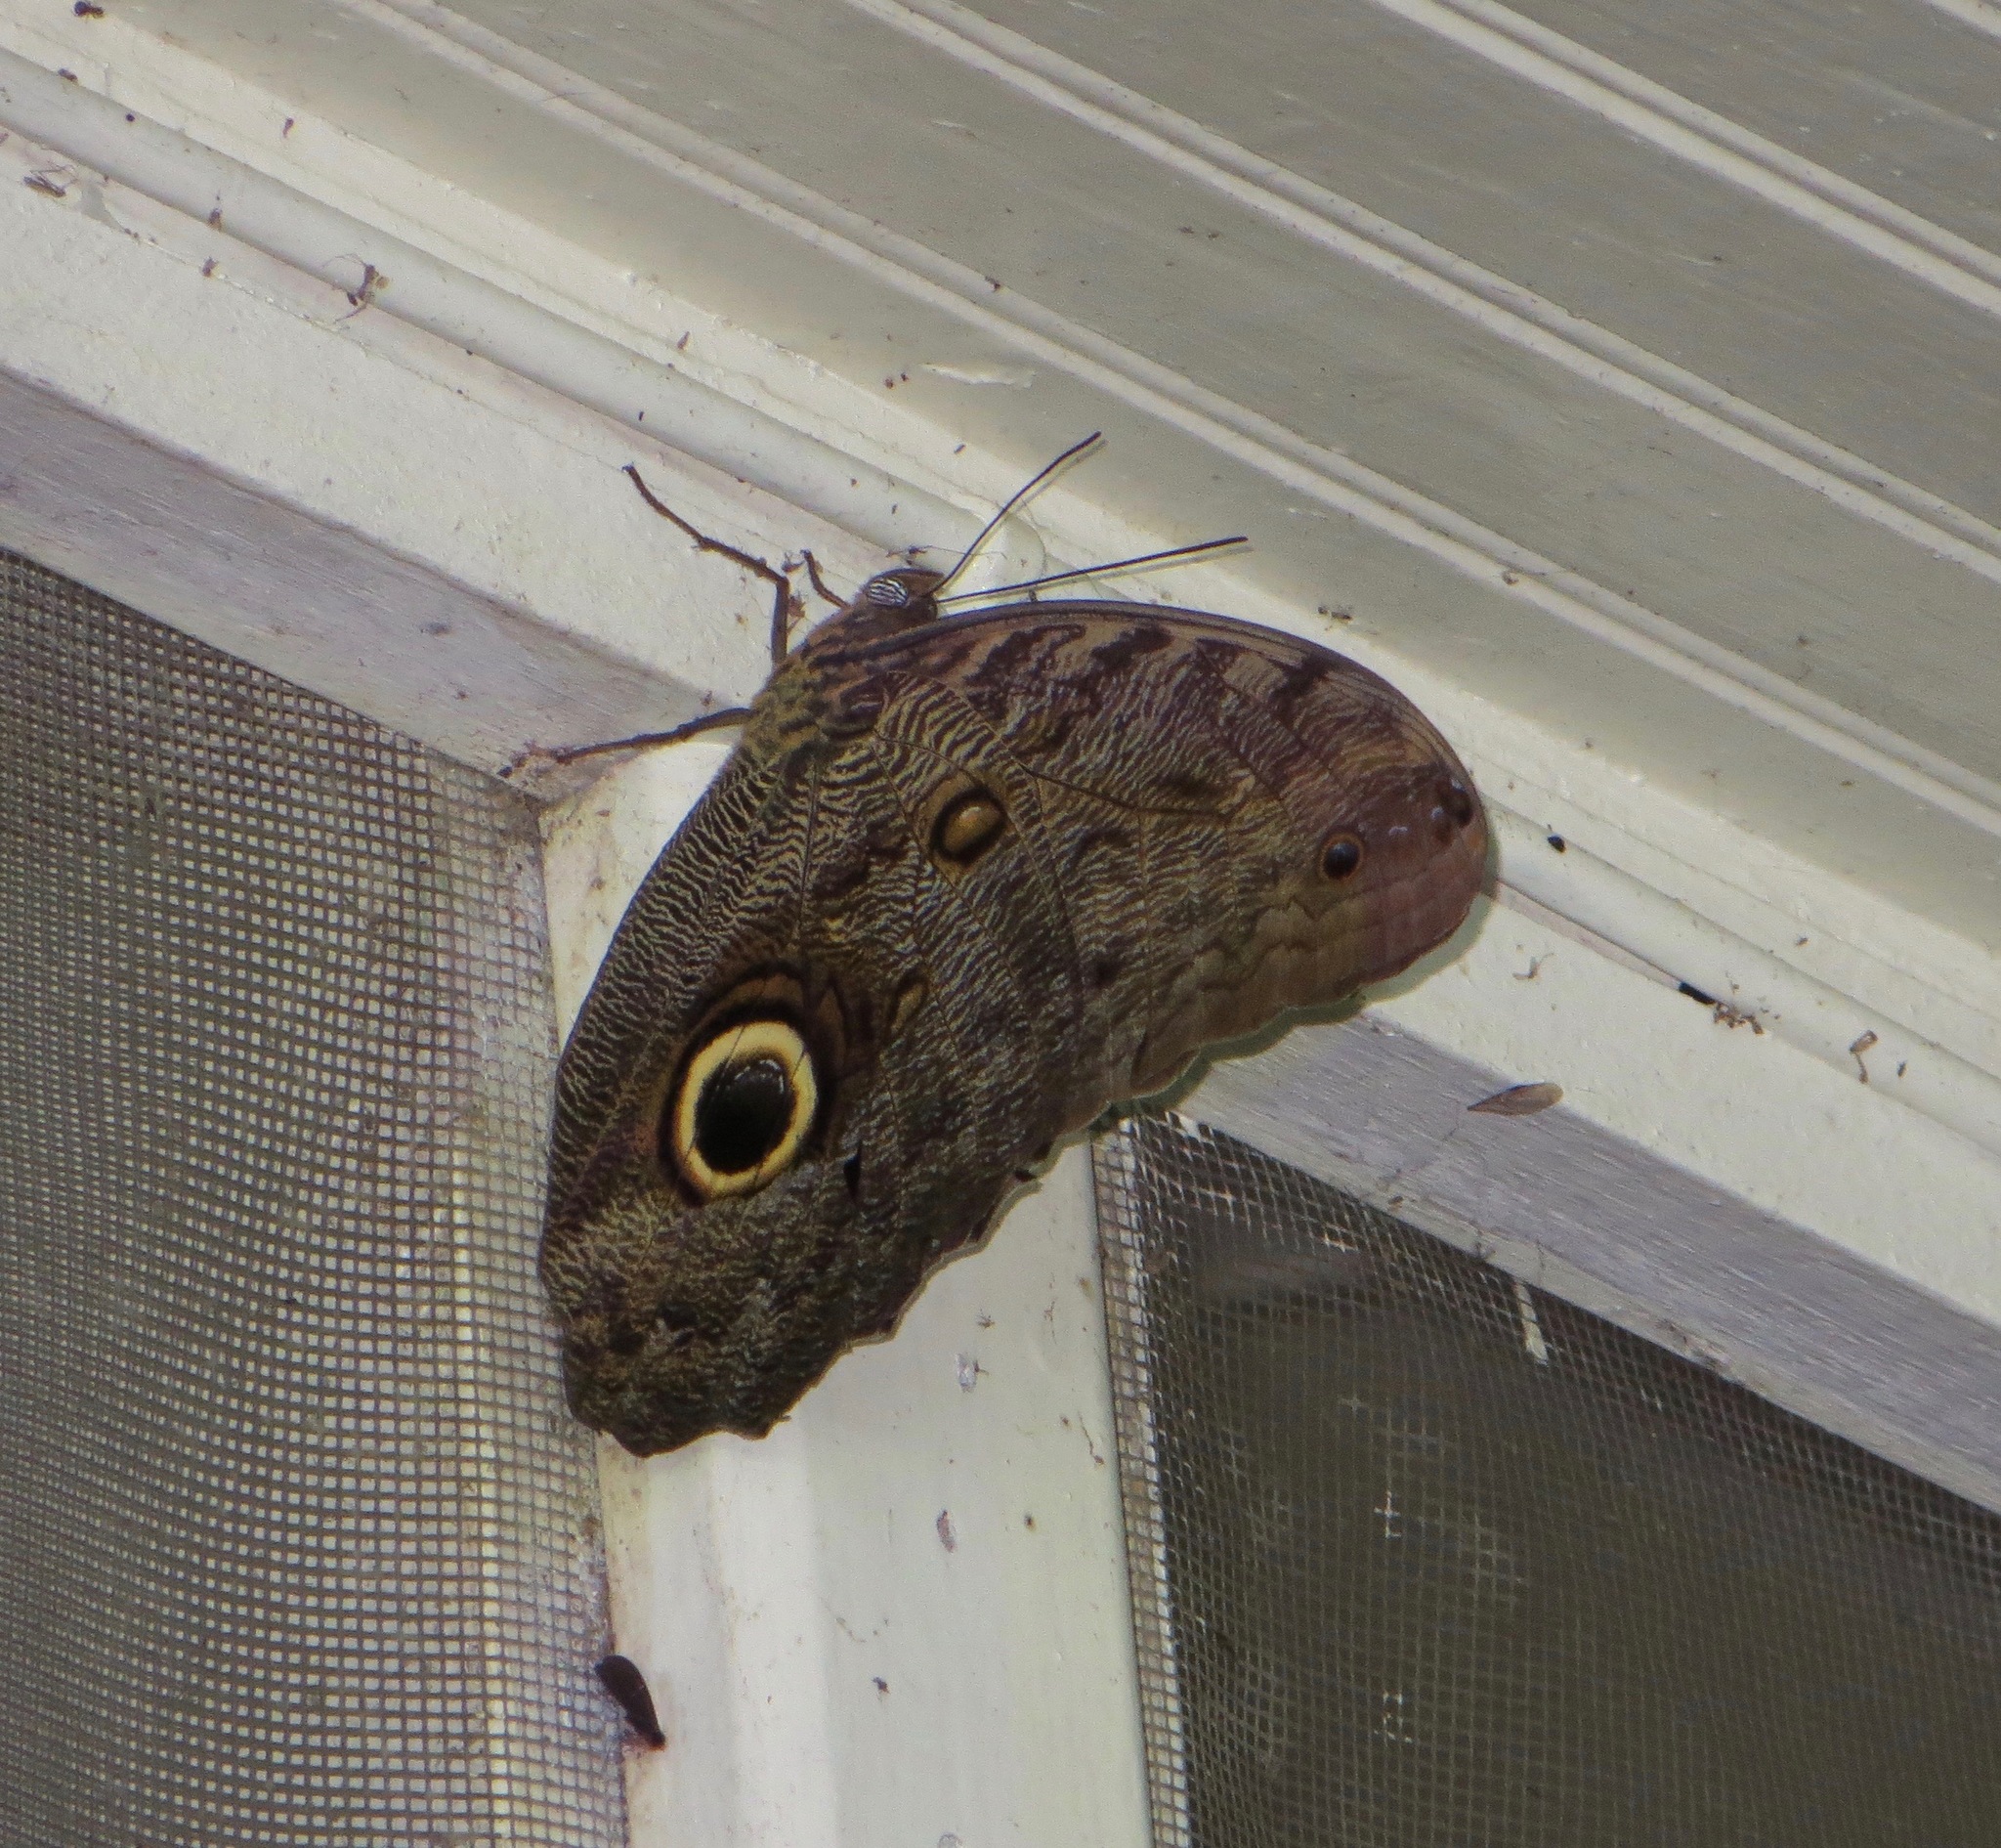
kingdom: Animalia
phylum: Arthropoda
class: Insecta
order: Lepidoptera
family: Nymphalidae
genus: Caligo
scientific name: Caligo brasiliensis
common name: Dark owl-butterfly
